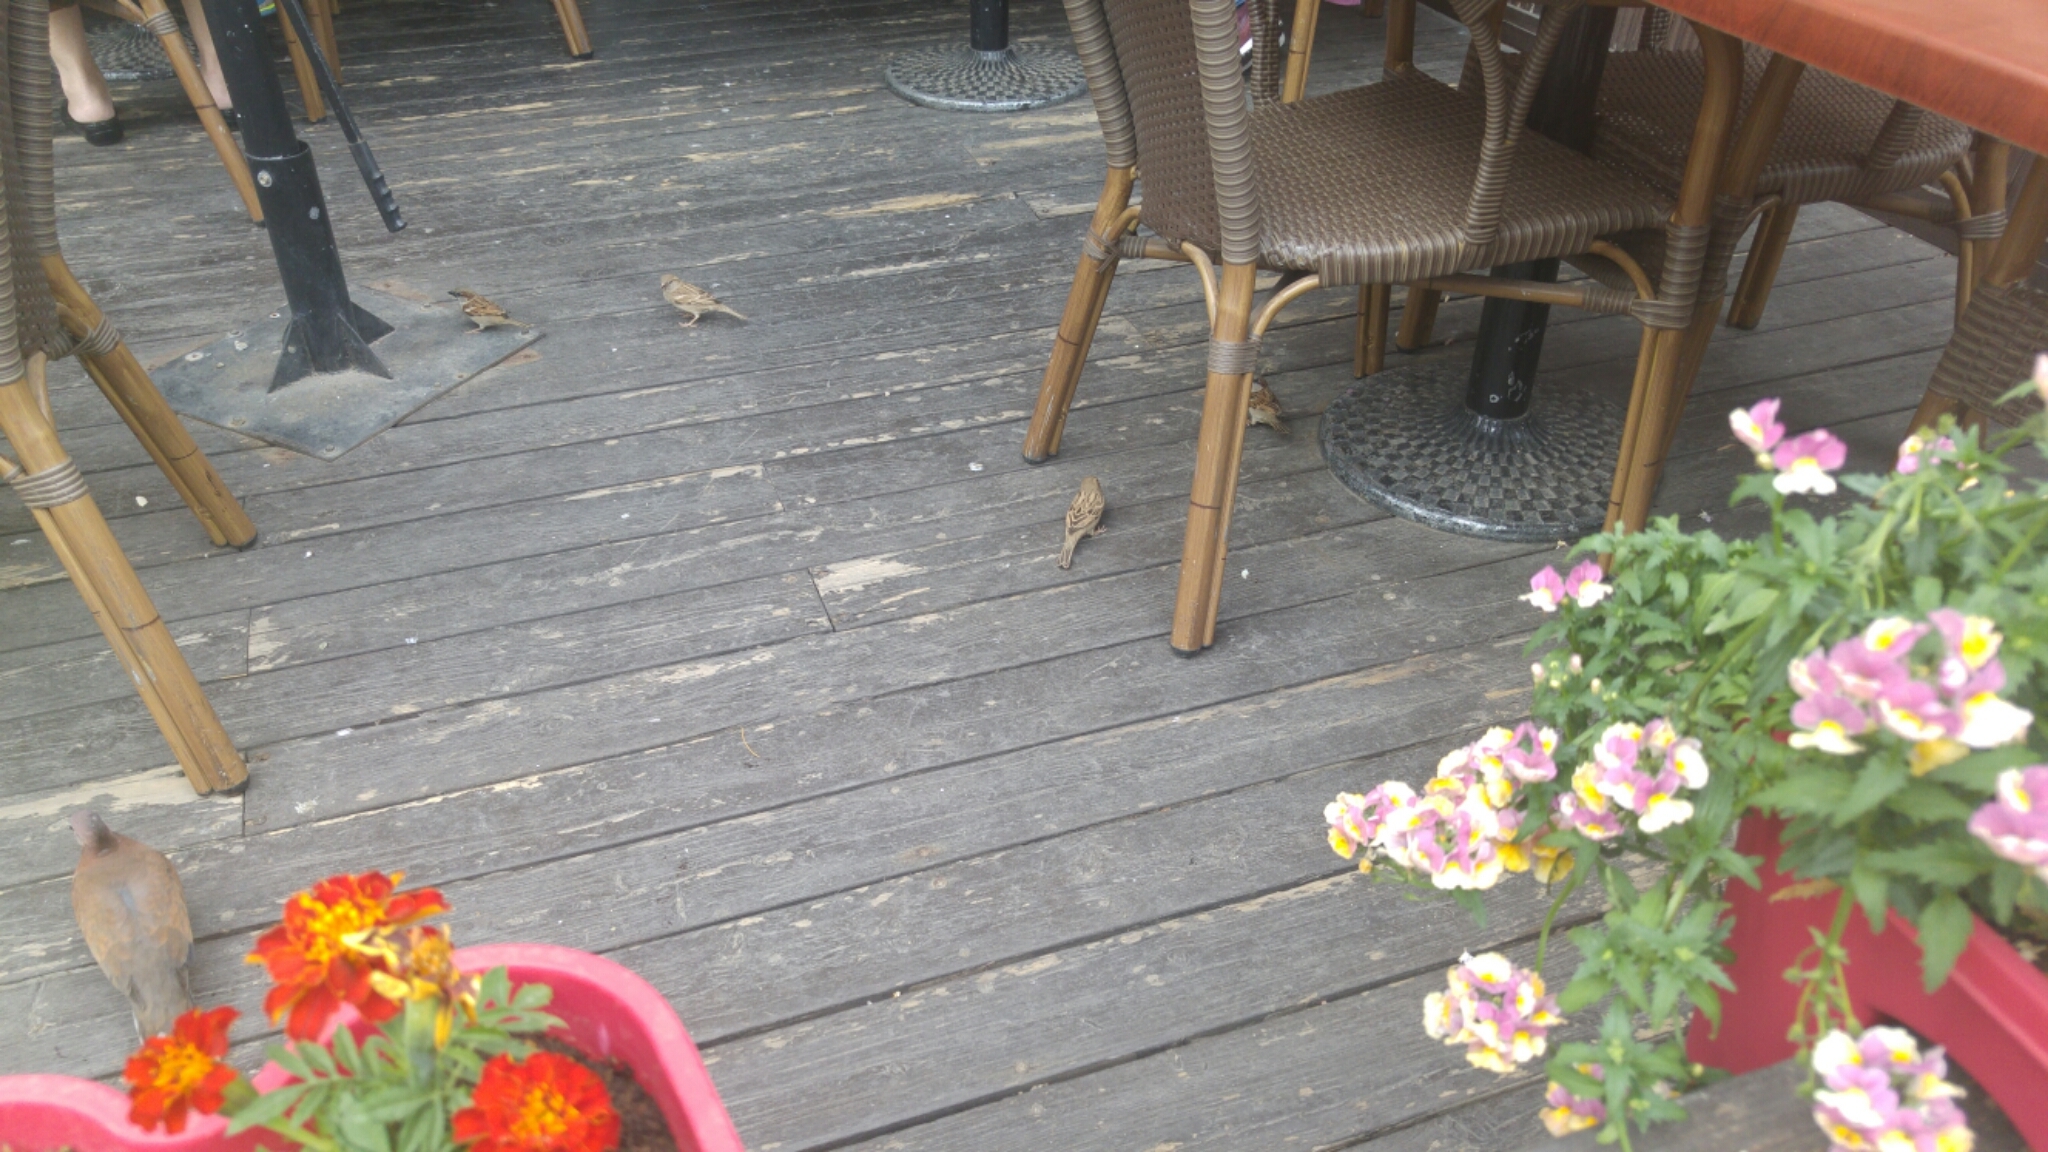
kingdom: Animalia
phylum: Chordata
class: Aves
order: Columbiformes
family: Columbidae
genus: Spilopelia
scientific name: Spilopelia senegalensis
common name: Laughing dove
